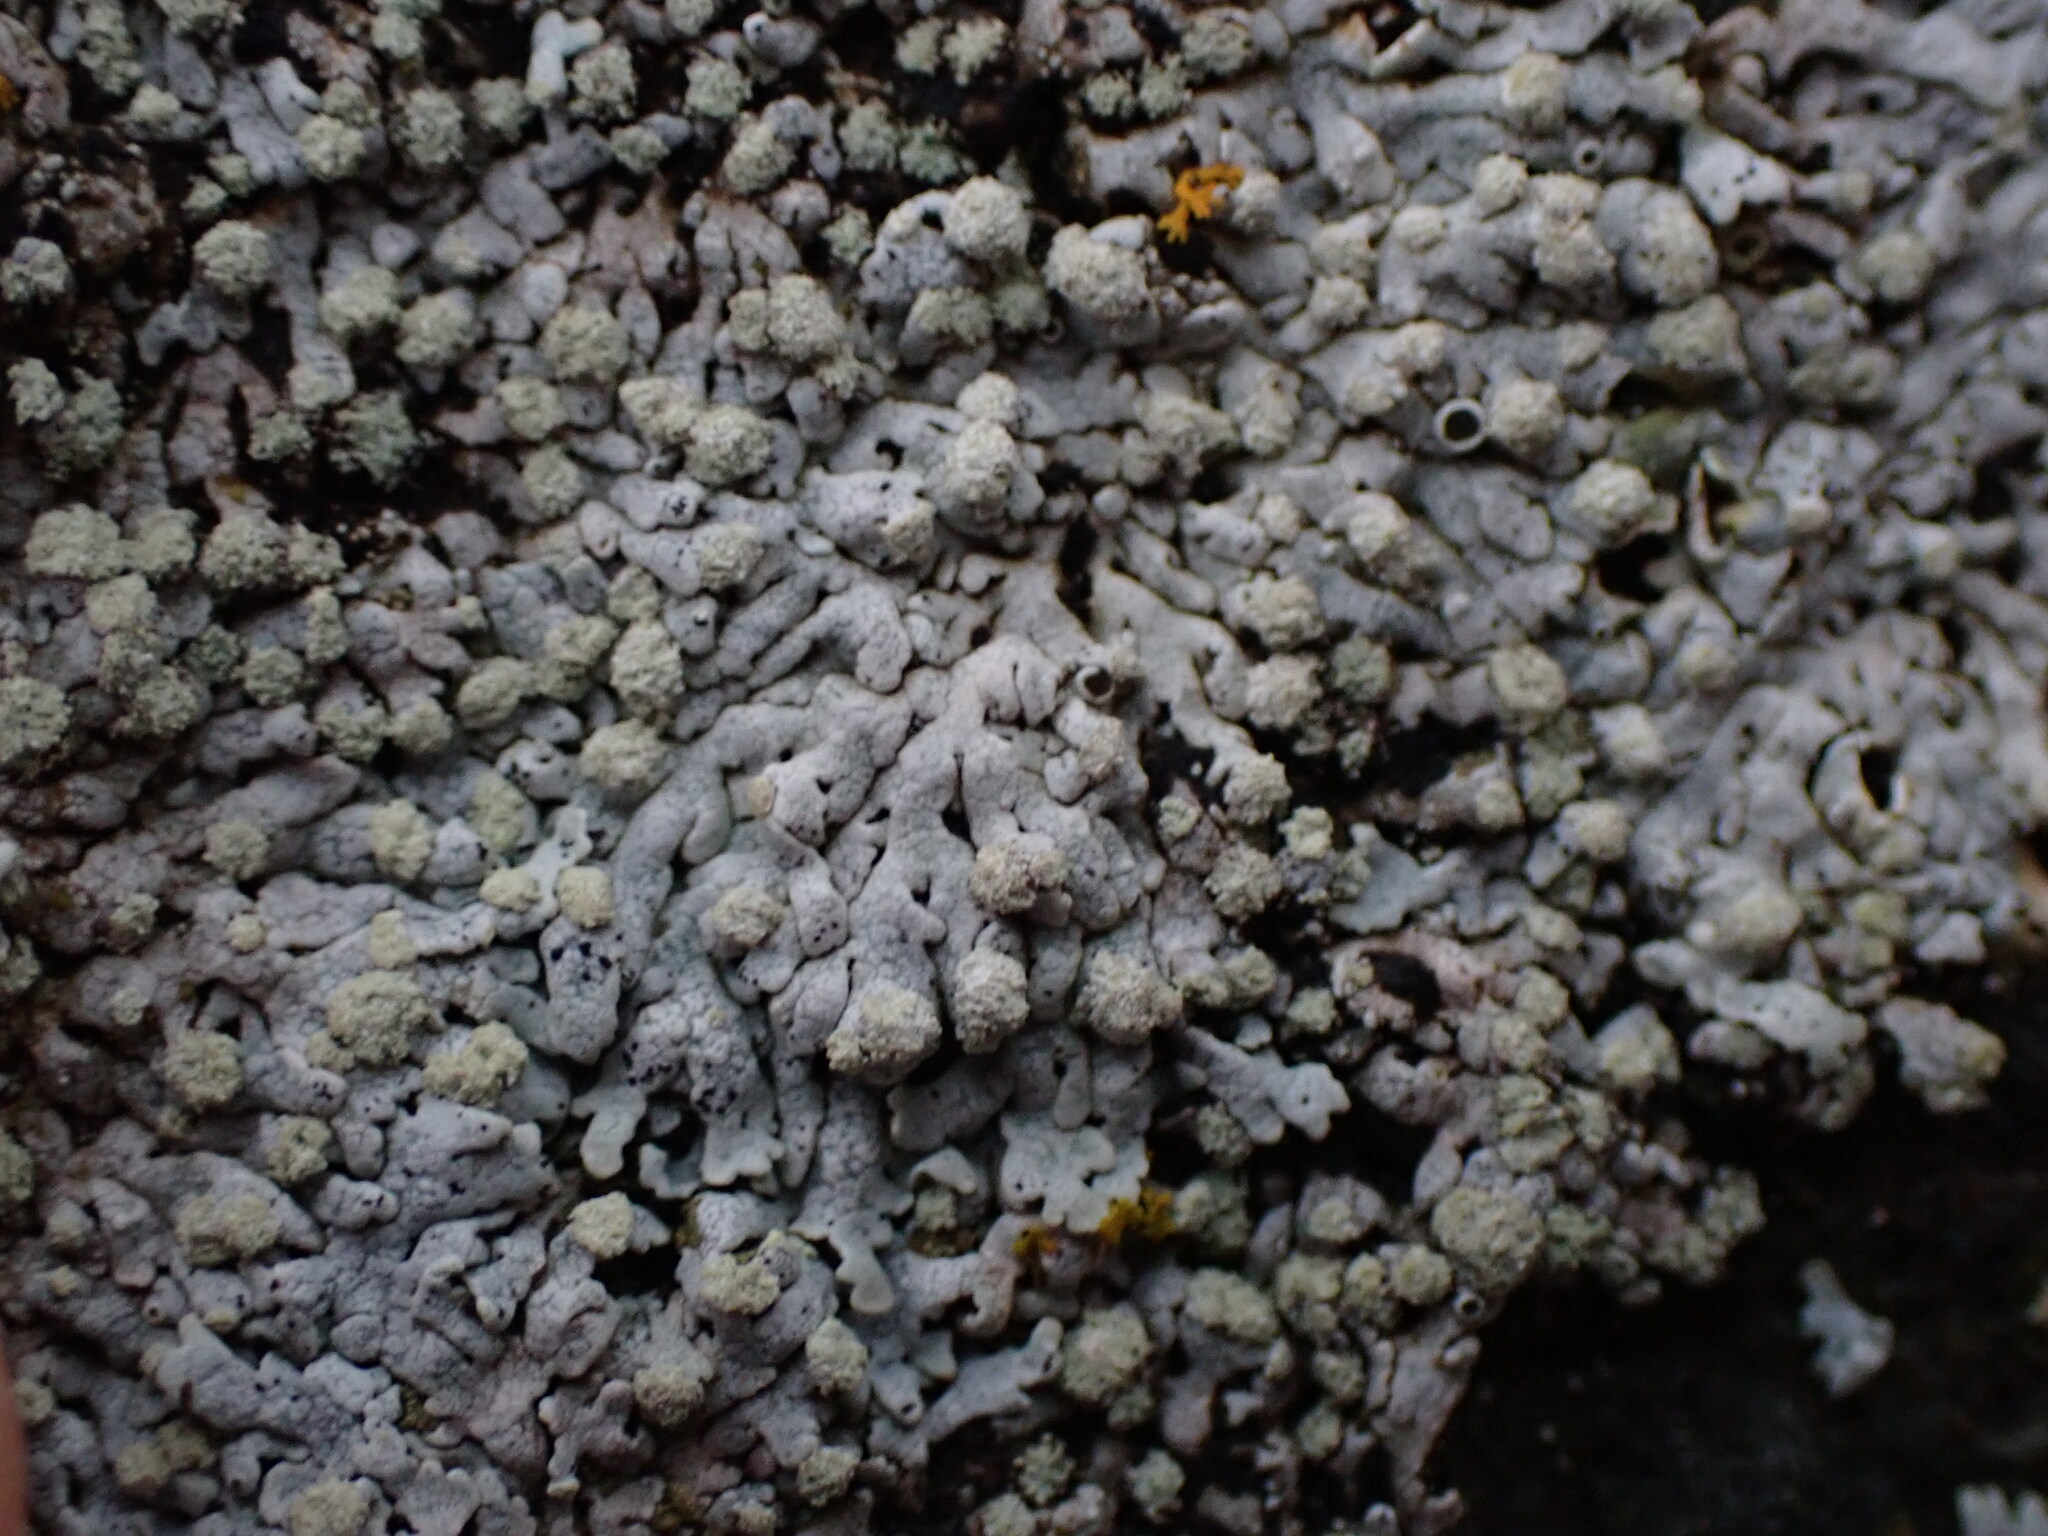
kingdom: Fungi
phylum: Ascomycota
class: Lecanoromycetes
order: Caliciales
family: Physciaceae
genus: Physcia
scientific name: Physcia caesia
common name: Blue-gray rosette lichen
